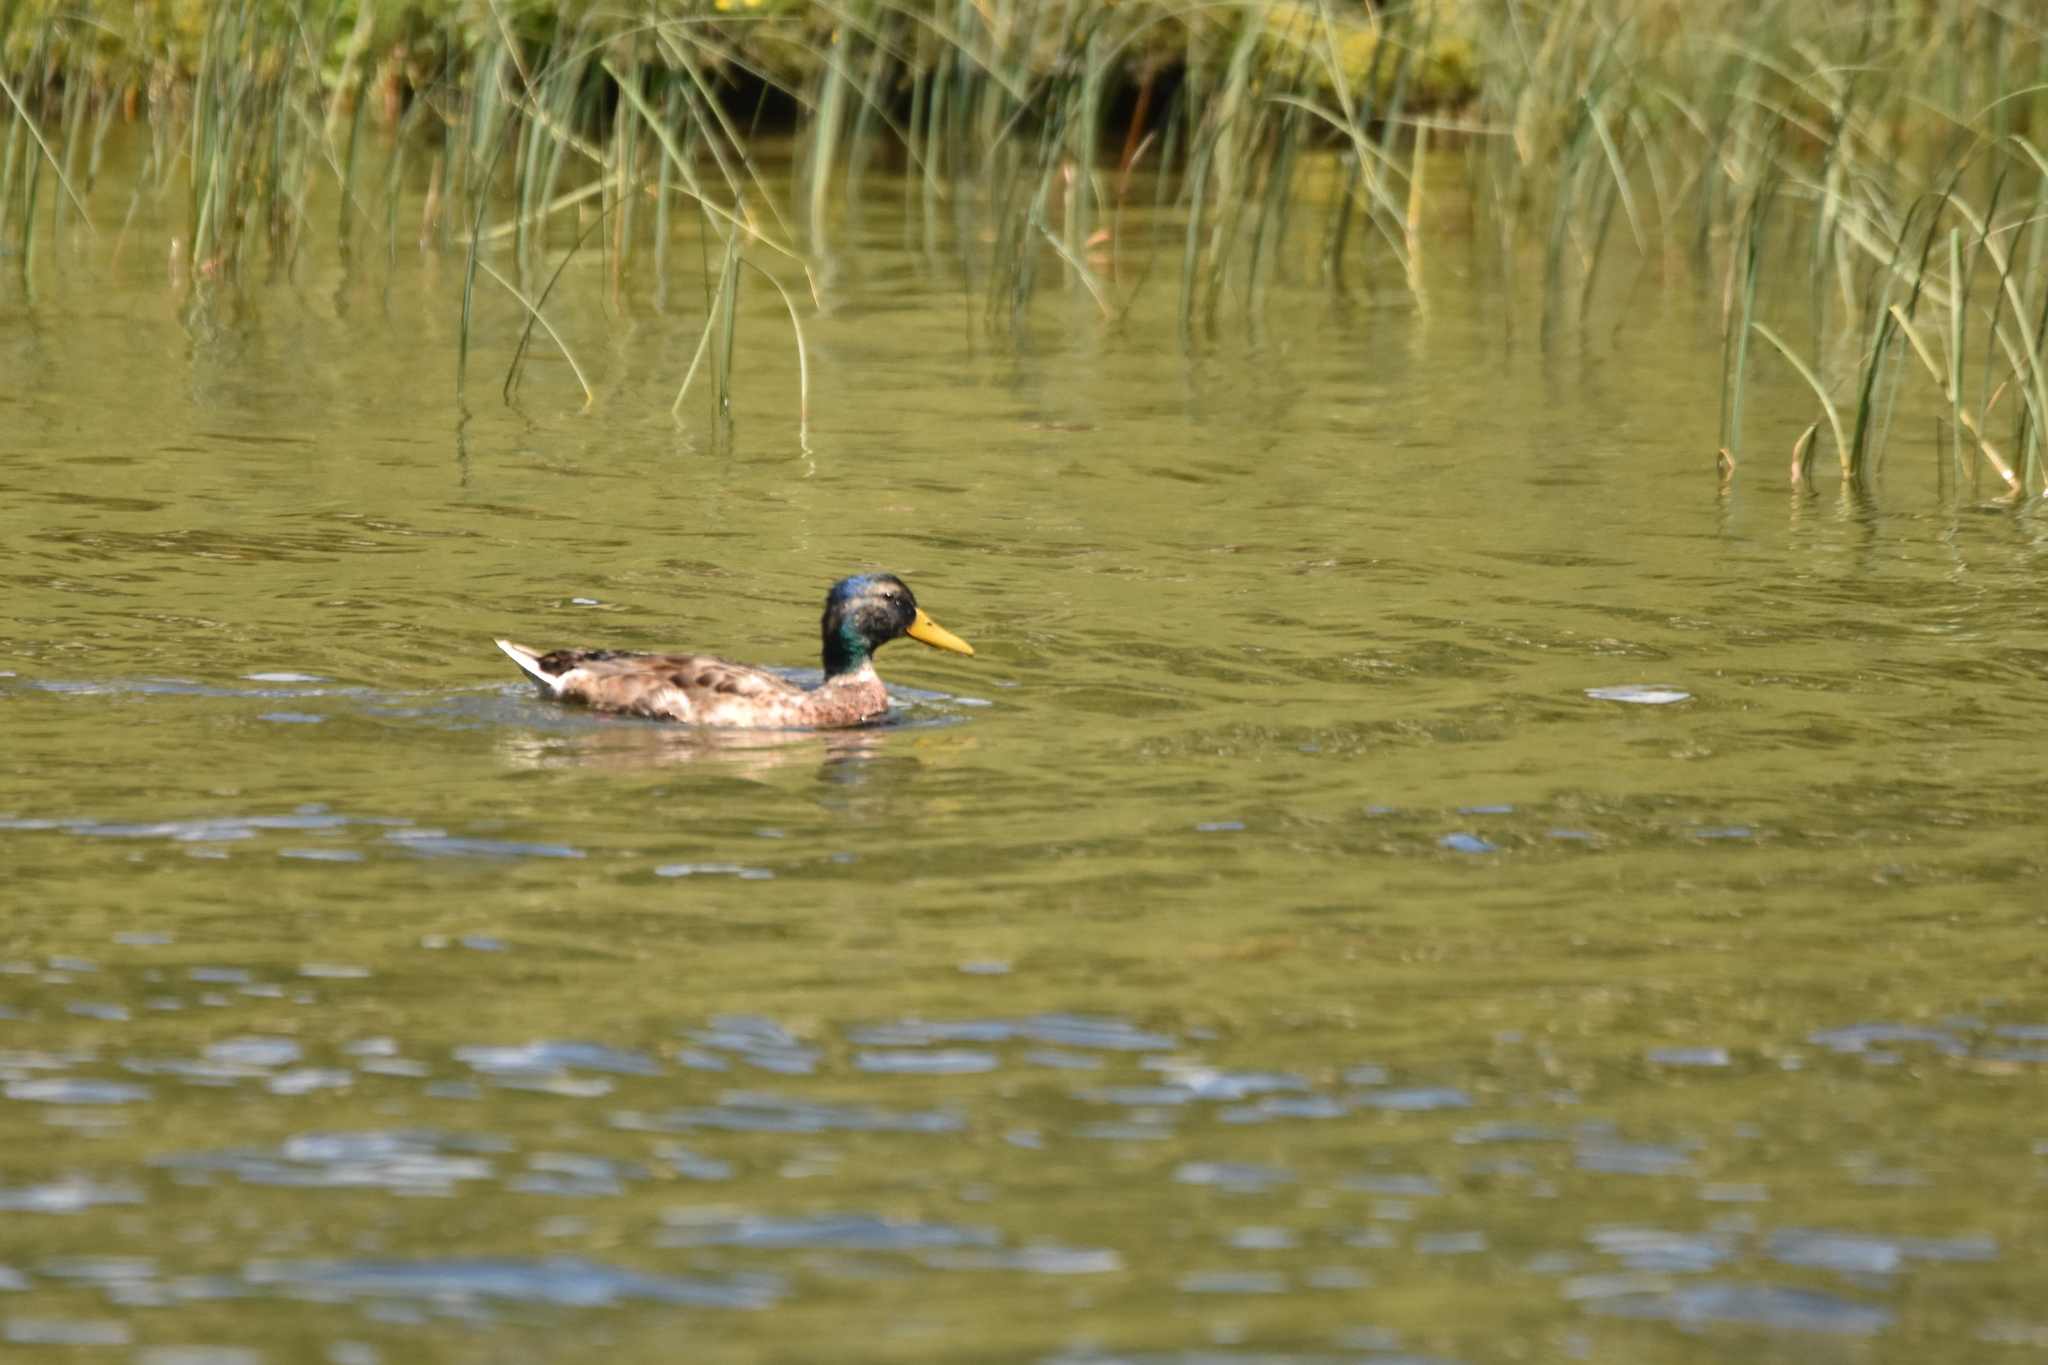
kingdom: Animalia
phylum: Chordata
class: Aves
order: Anseriformes
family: Anatidae
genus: Anas
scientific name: Anas platyrhynchos
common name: Mallard
